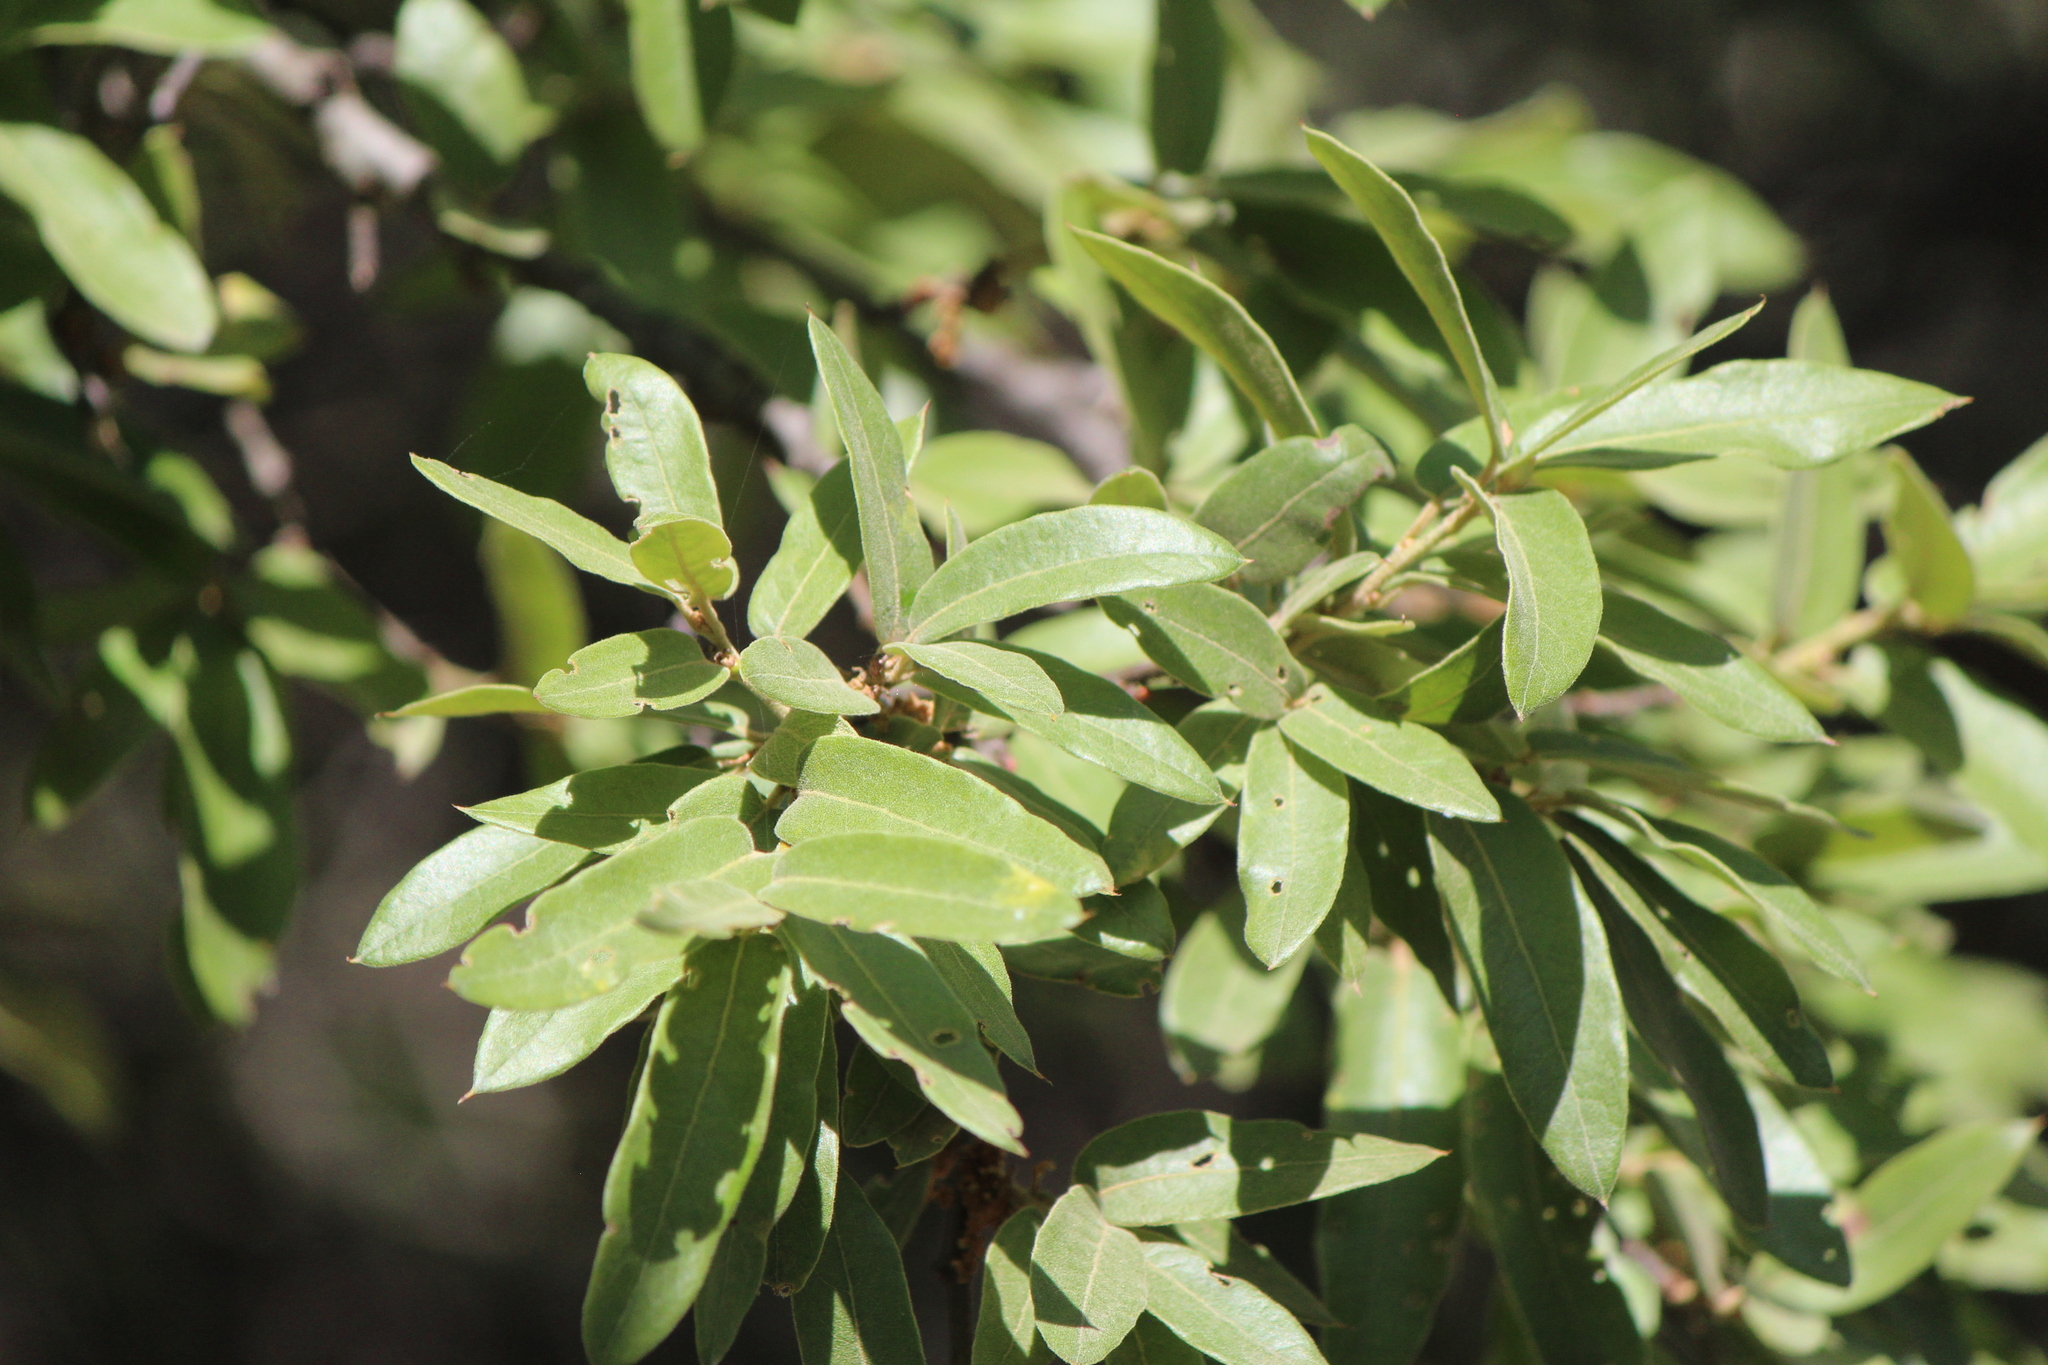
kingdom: Plantae
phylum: Tracheophyta
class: Magnoliopsida
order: Fagales
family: Fagaceae
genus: Quercus
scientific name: Quercus crassipes
